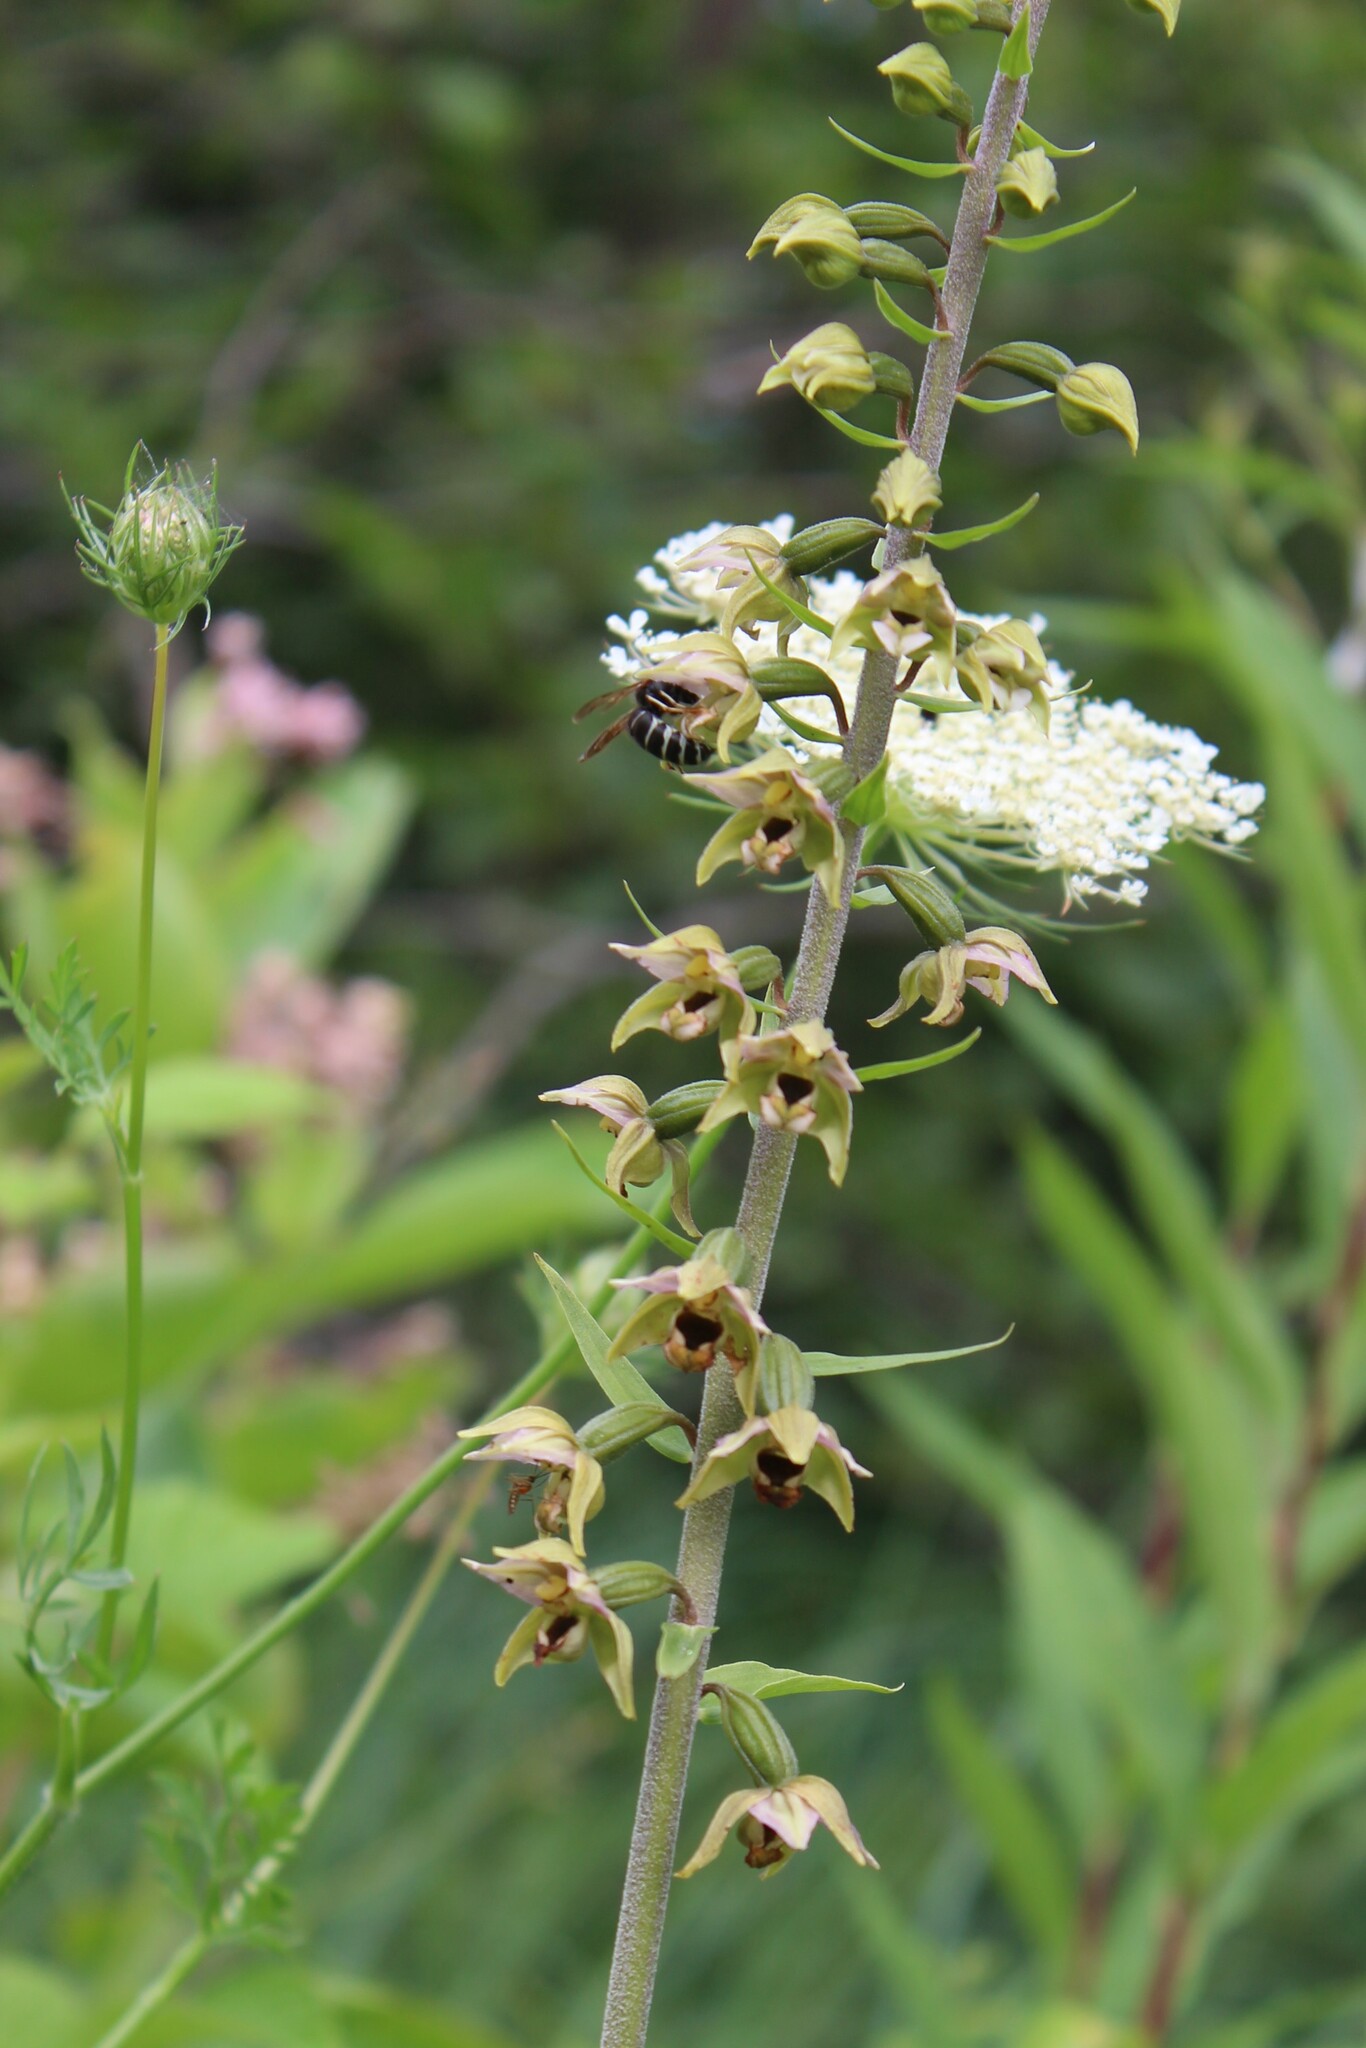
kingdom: Plantae
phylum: Tracheophyta
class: Liliopsida
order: Asparagales
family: Orchidaceae
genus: Epipactis
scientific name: Epipactis helleborine
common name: Broad-leaved helleborine
